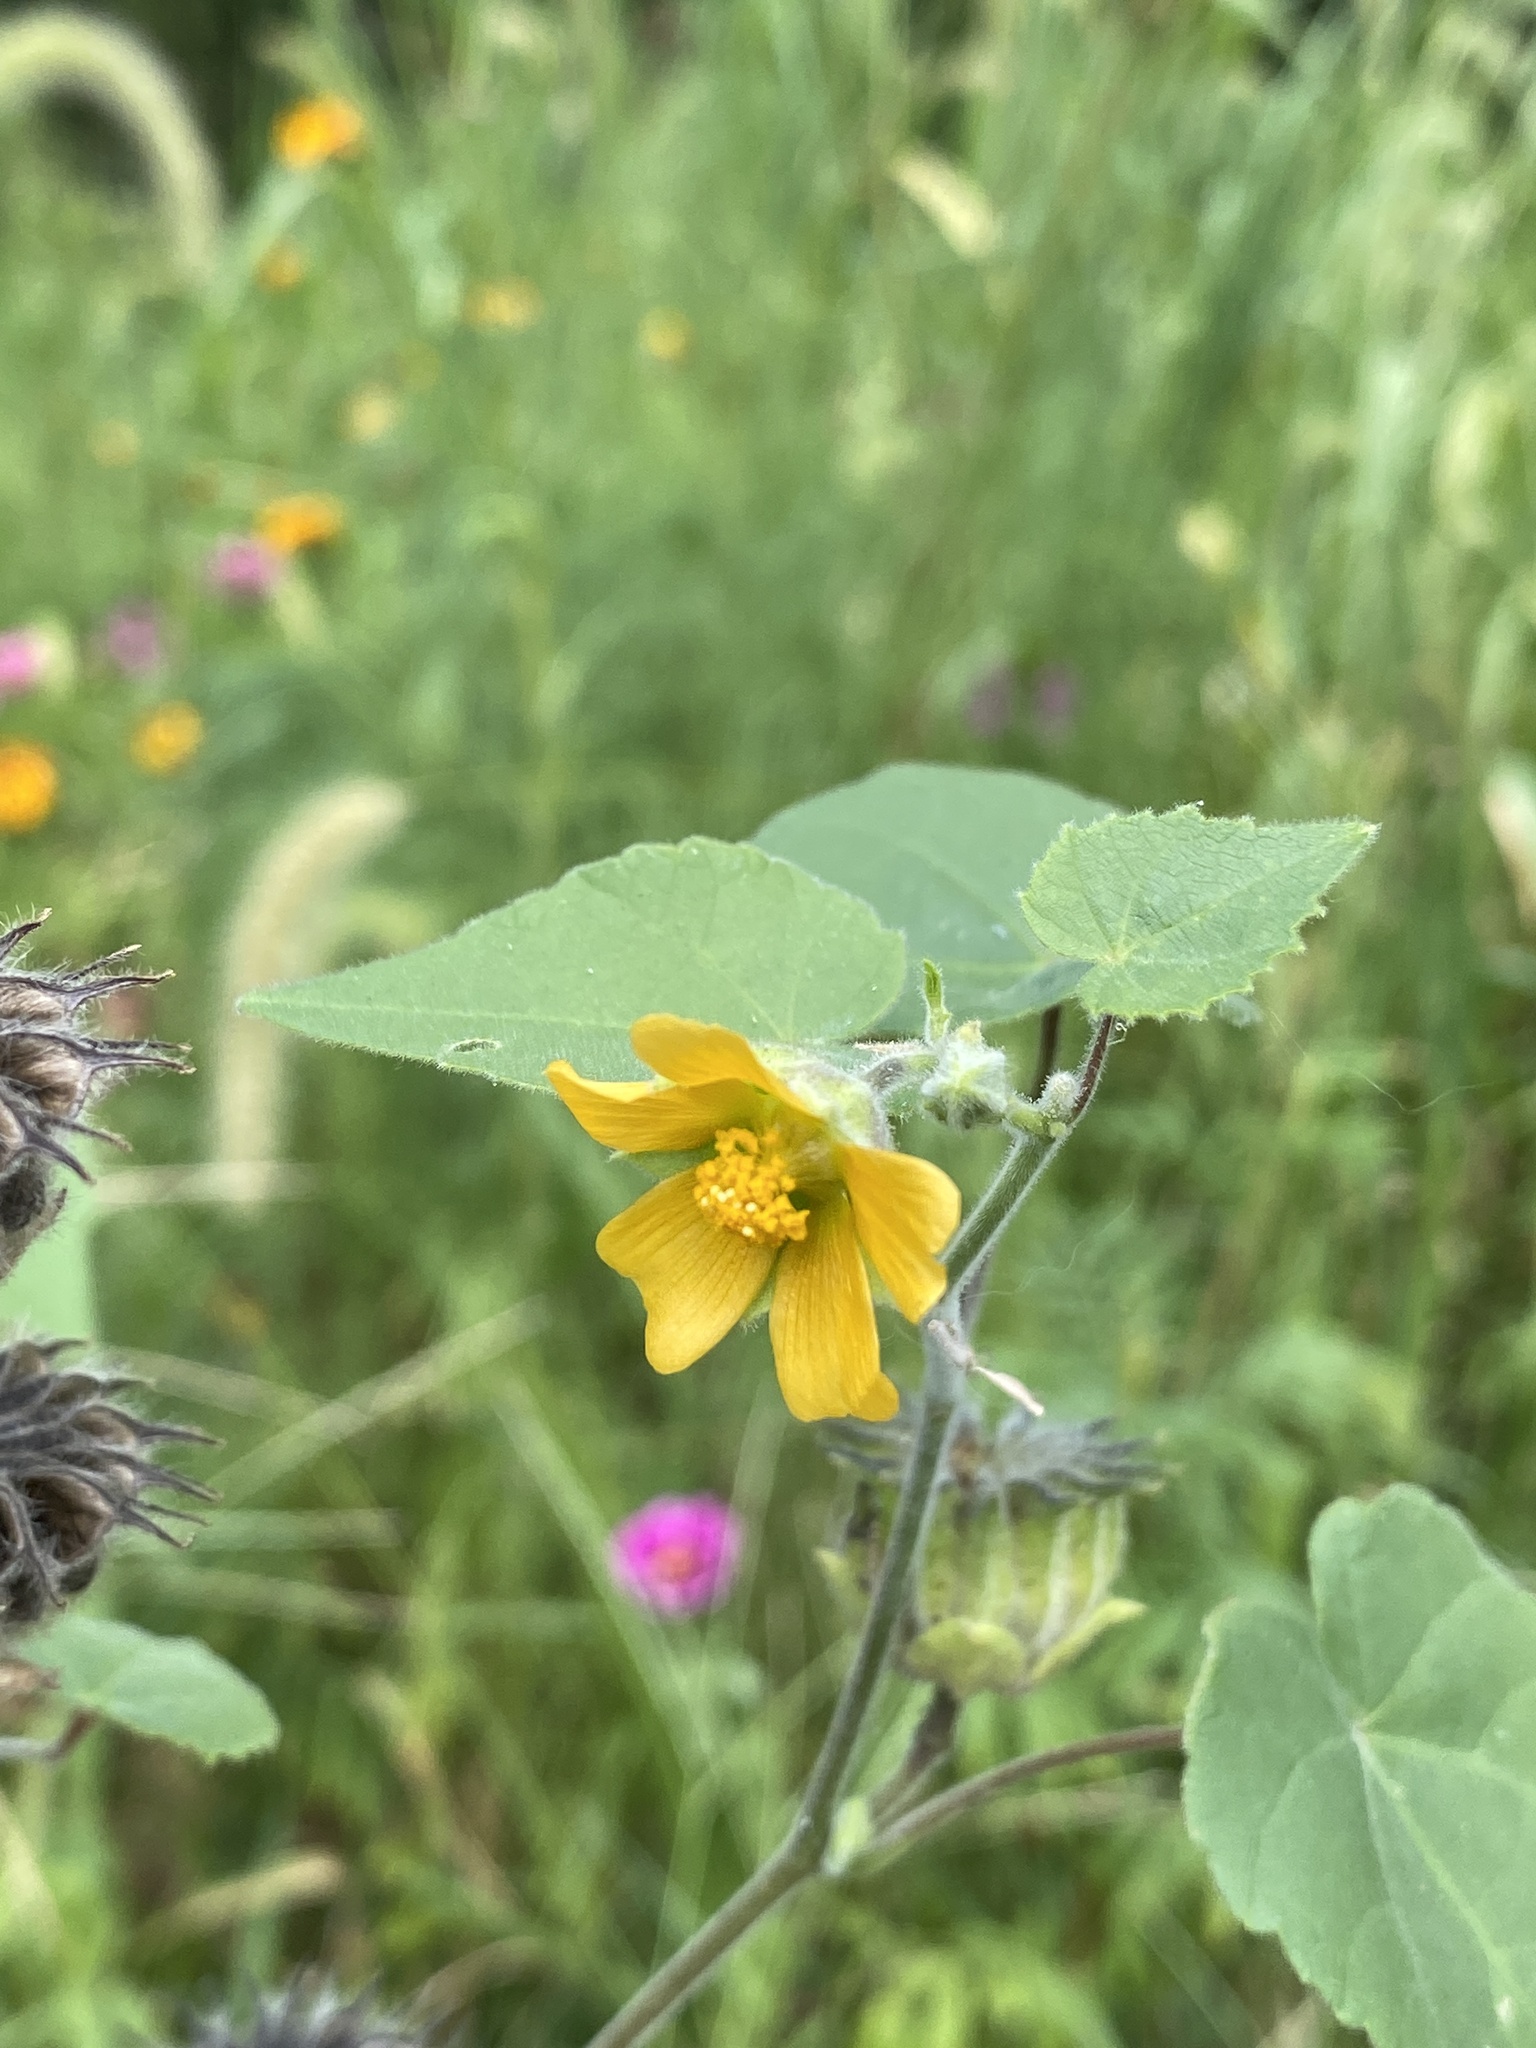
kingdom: Plantae
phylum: Tracheophyta
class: Magnoliopsida
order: Malvales
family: Malvaceae
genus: Abutilon
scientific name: Abutilon theophrasti
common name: Velvetleaf
